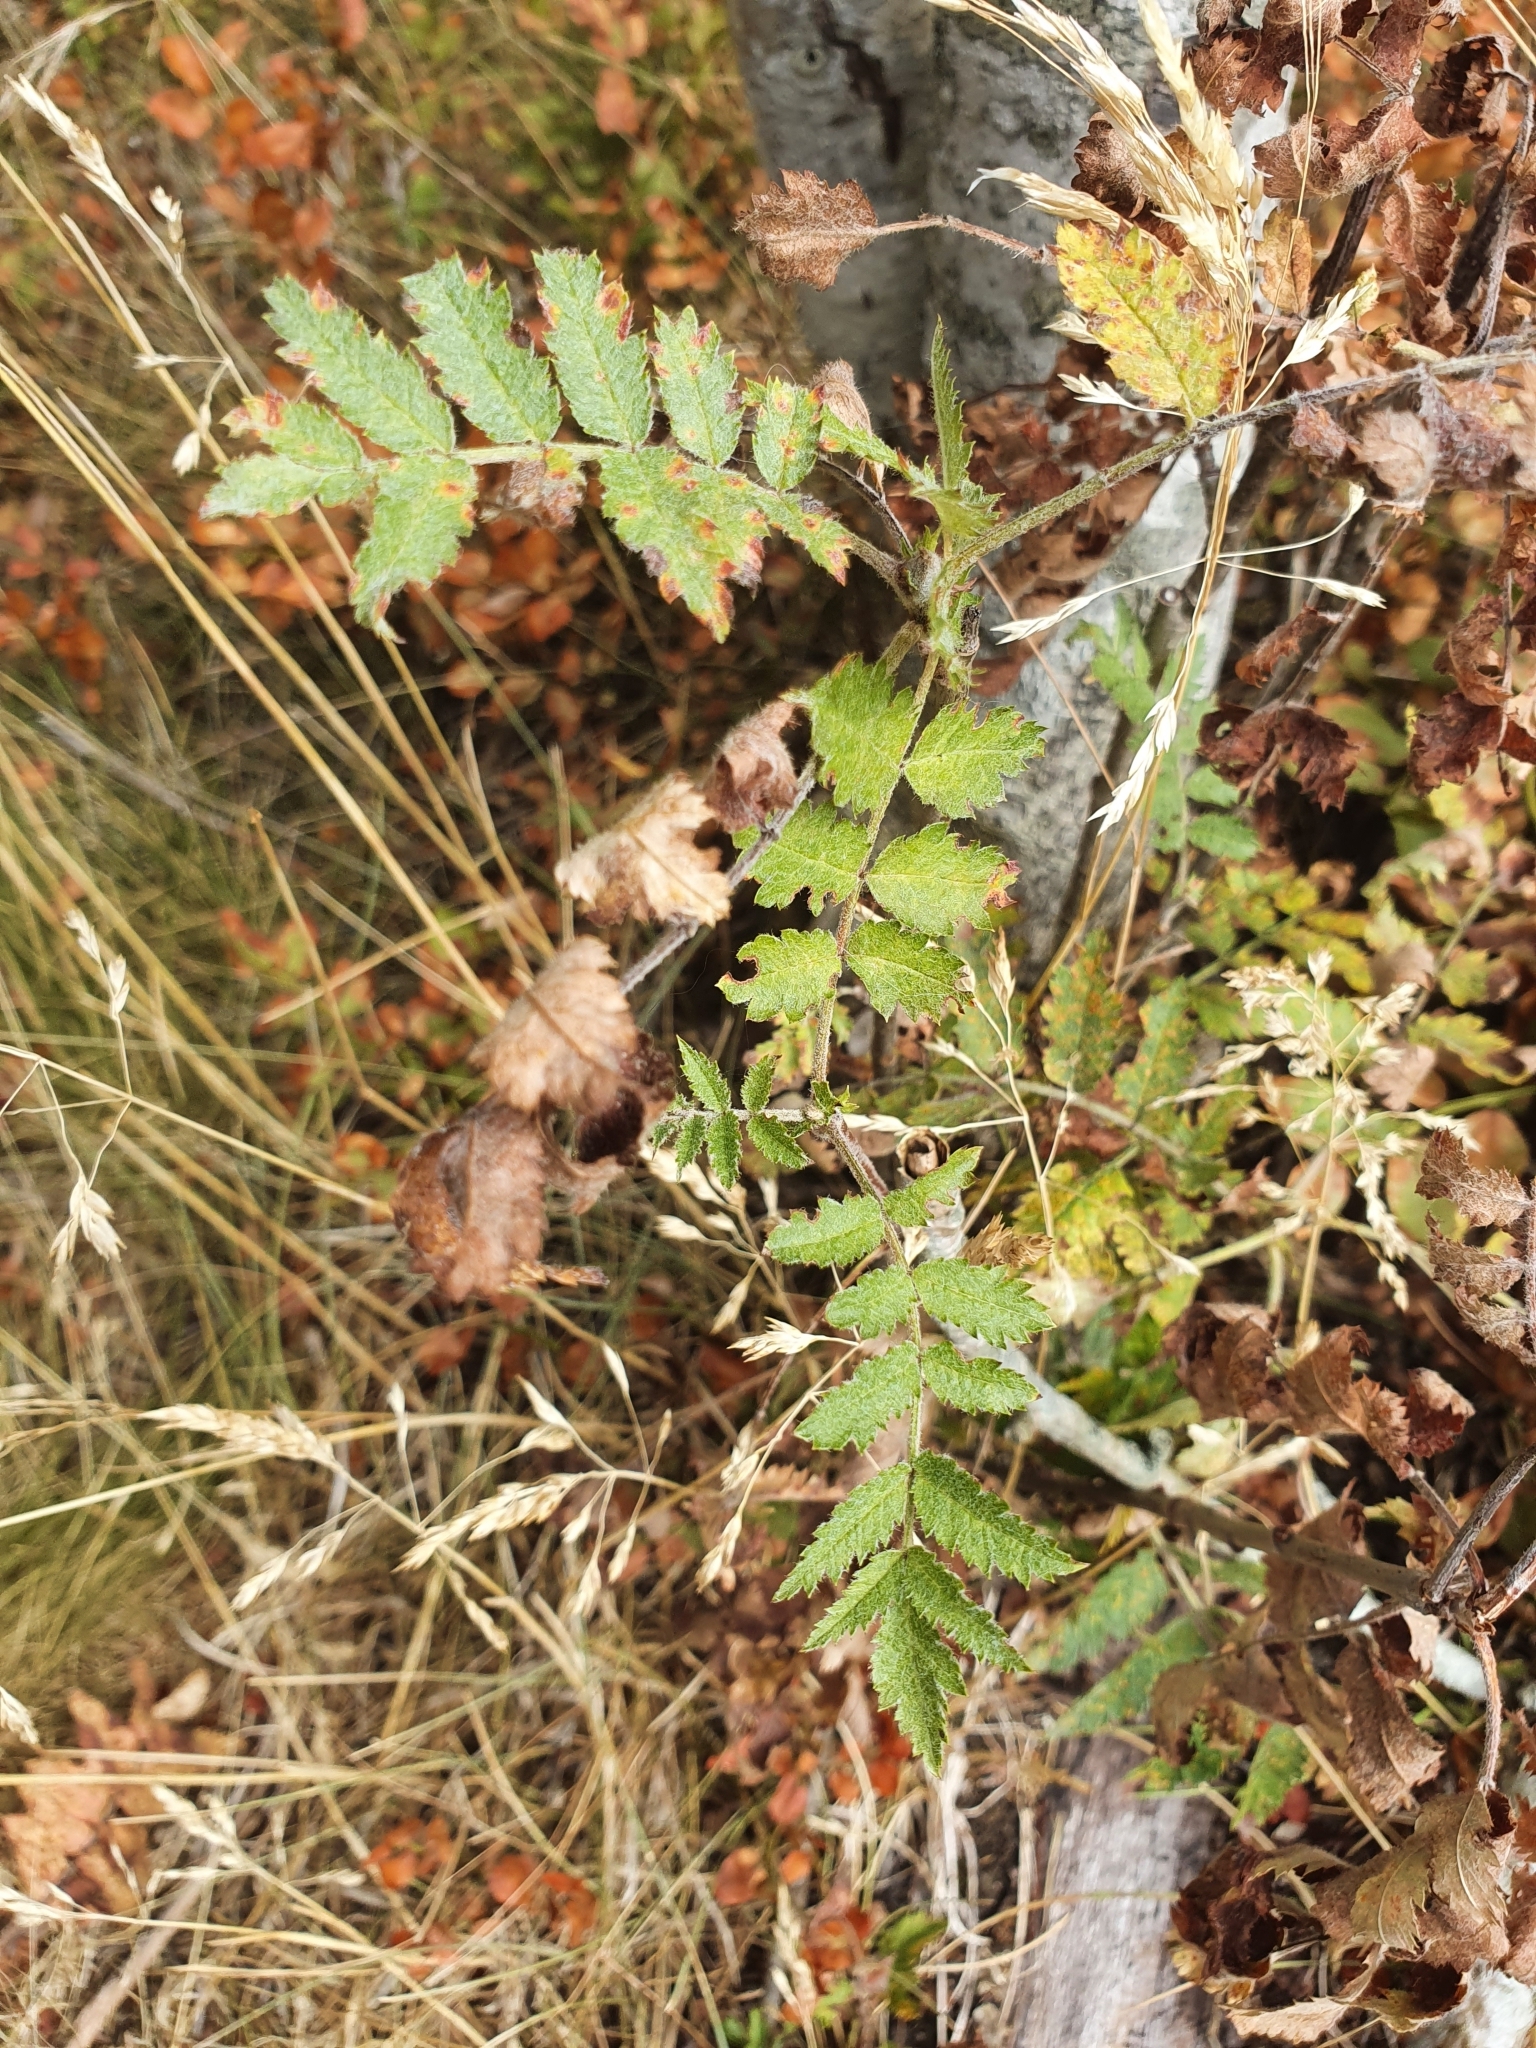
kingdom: Plantae
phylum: Tracheophyta
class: Magnoliopsida
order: Rosales
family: Rosaceae
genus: Sorbus
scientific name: Sorbus aucuparia
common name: Rowan
